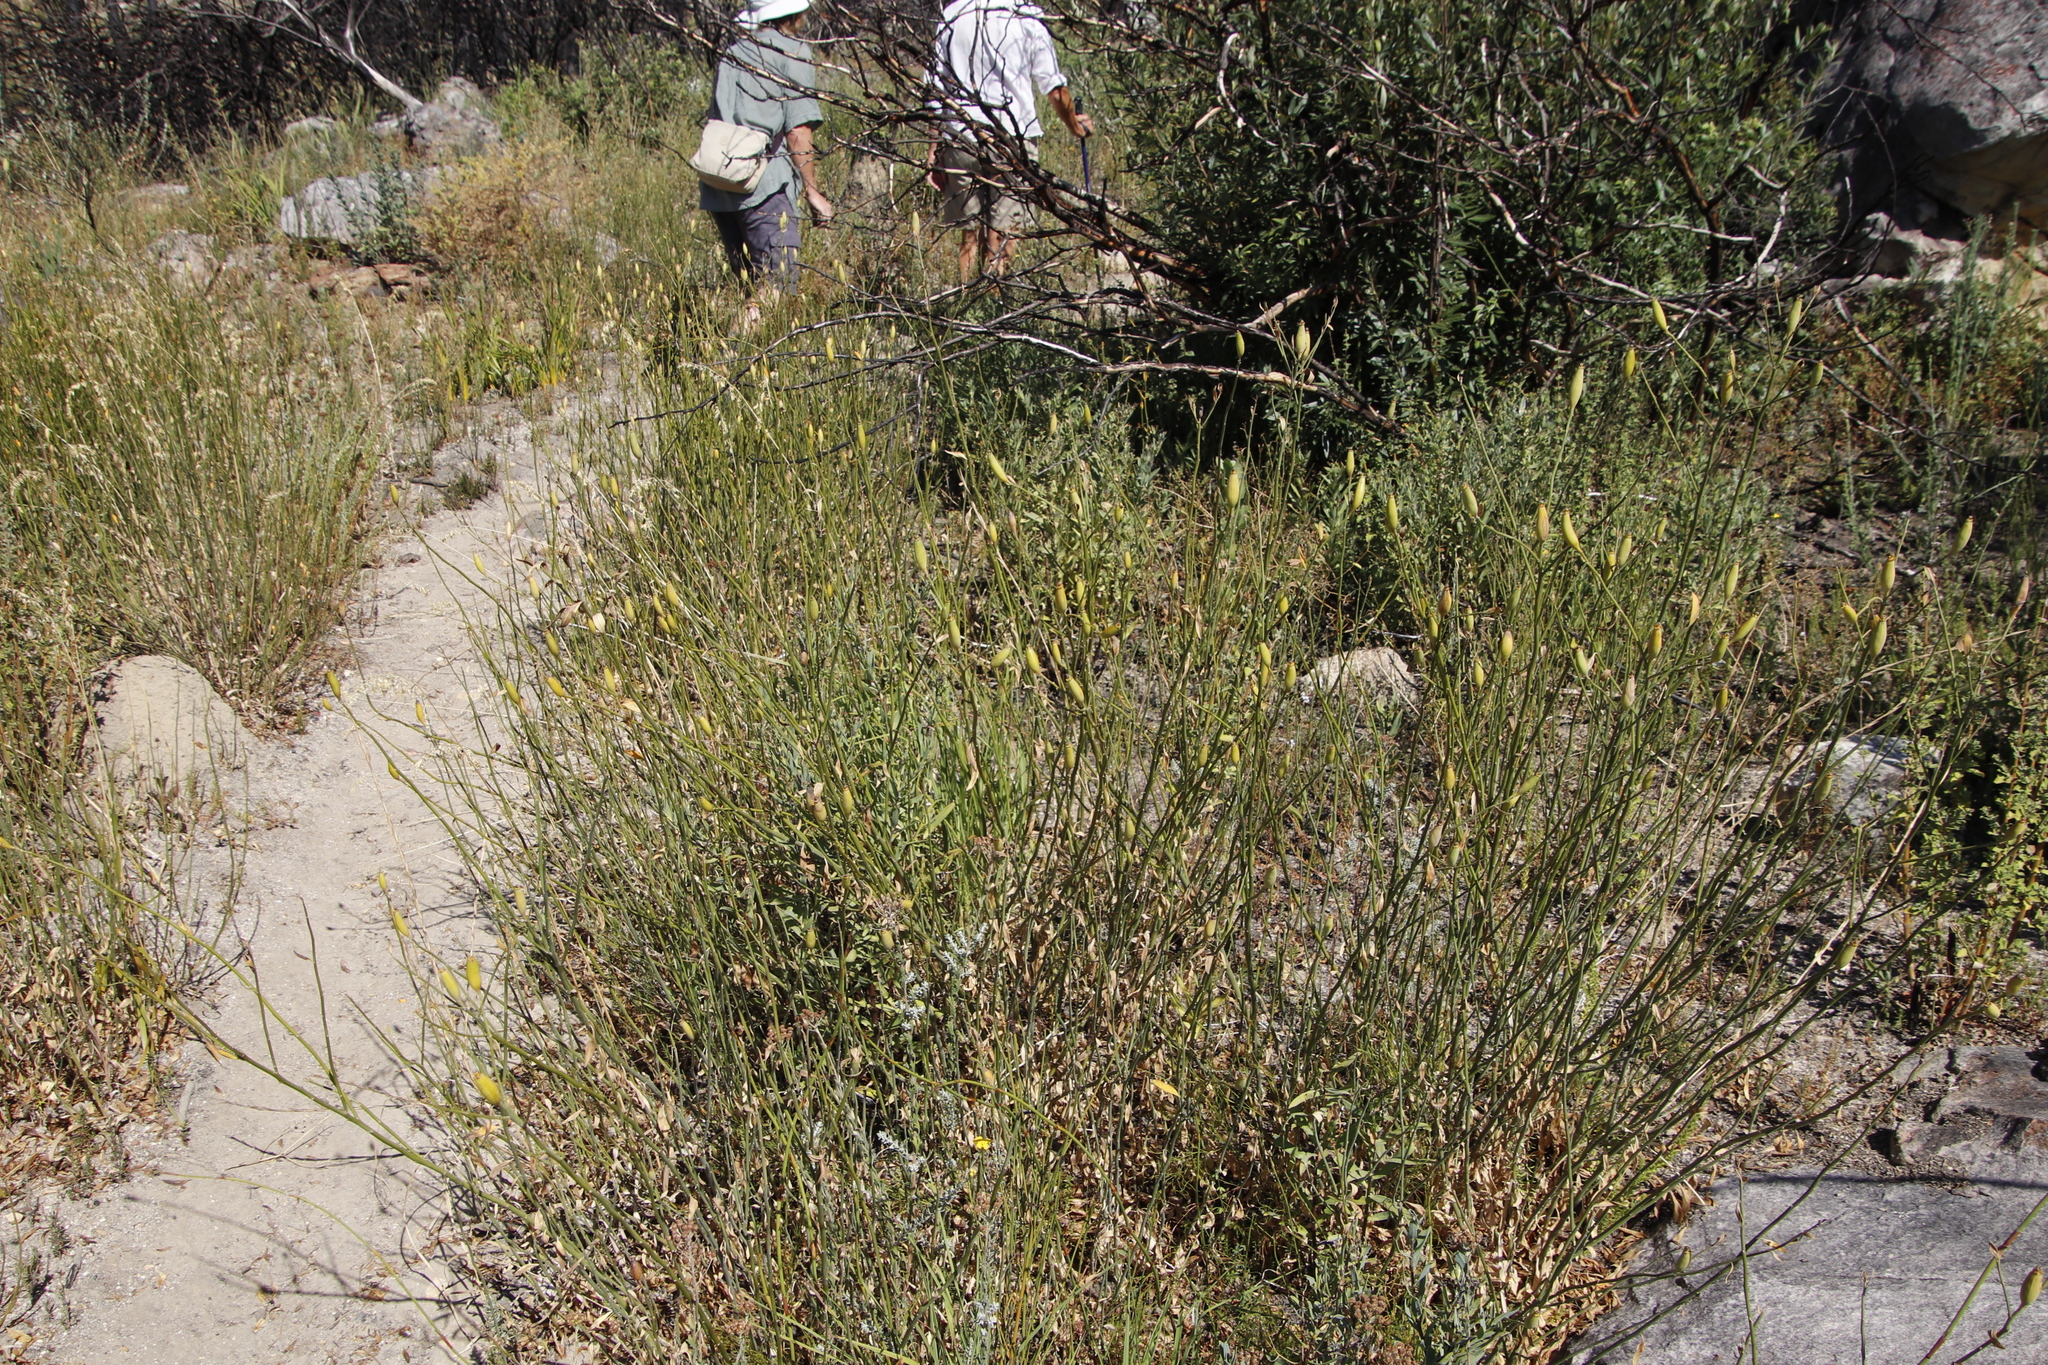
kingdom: Plantae
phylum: Tracheophyta
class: Magnoliopsida
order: Solanales
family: Montiniaceae
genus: Montinia
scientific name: Montinia caryophyllacea
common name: Wild clove-bush
